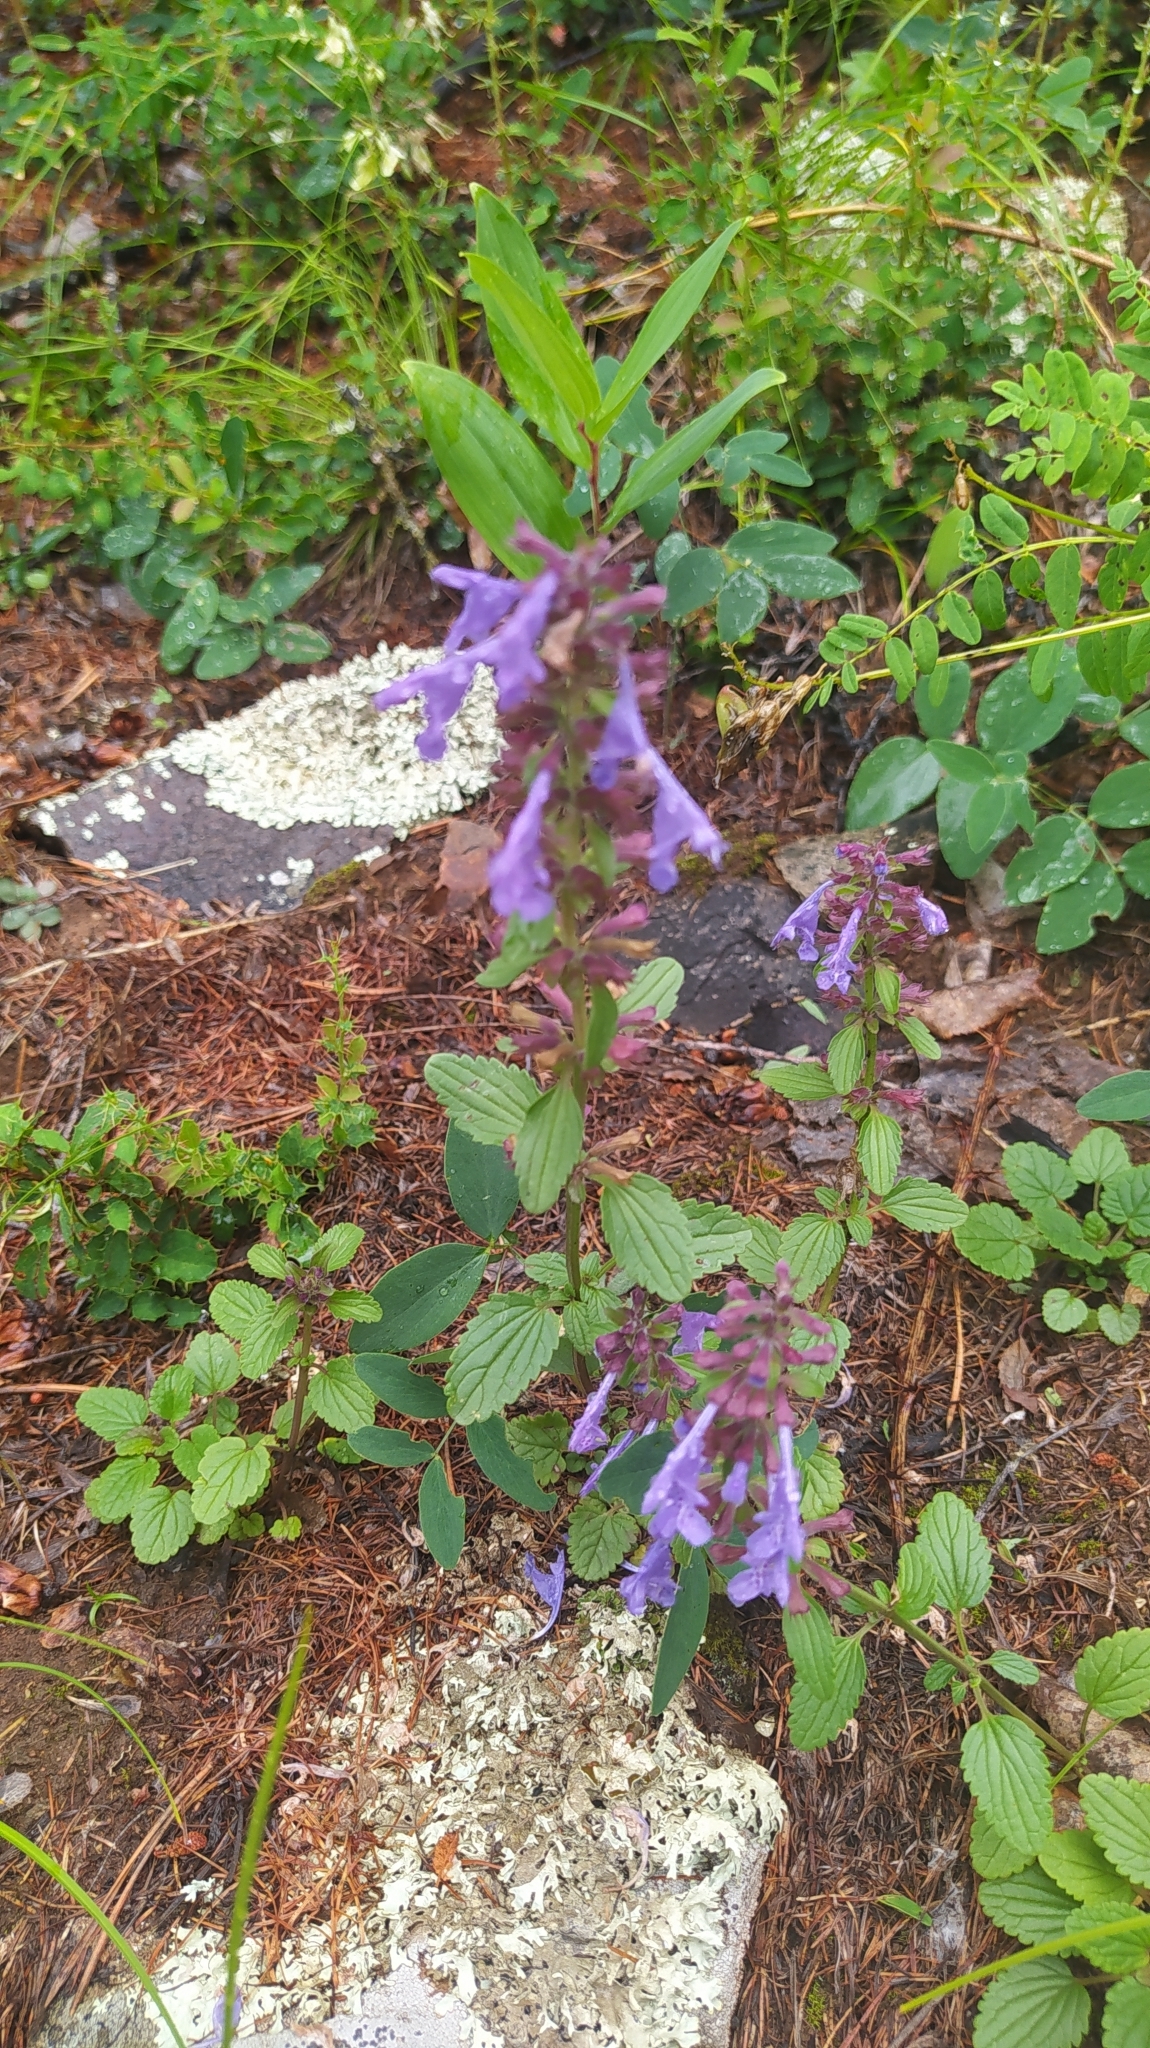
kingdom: Plantae
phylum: Tracheophyta
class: Magnoliopsida
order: Lamiales
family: Lamiaceae
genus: Dracocephalum
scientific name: Dracocephalum nutans
